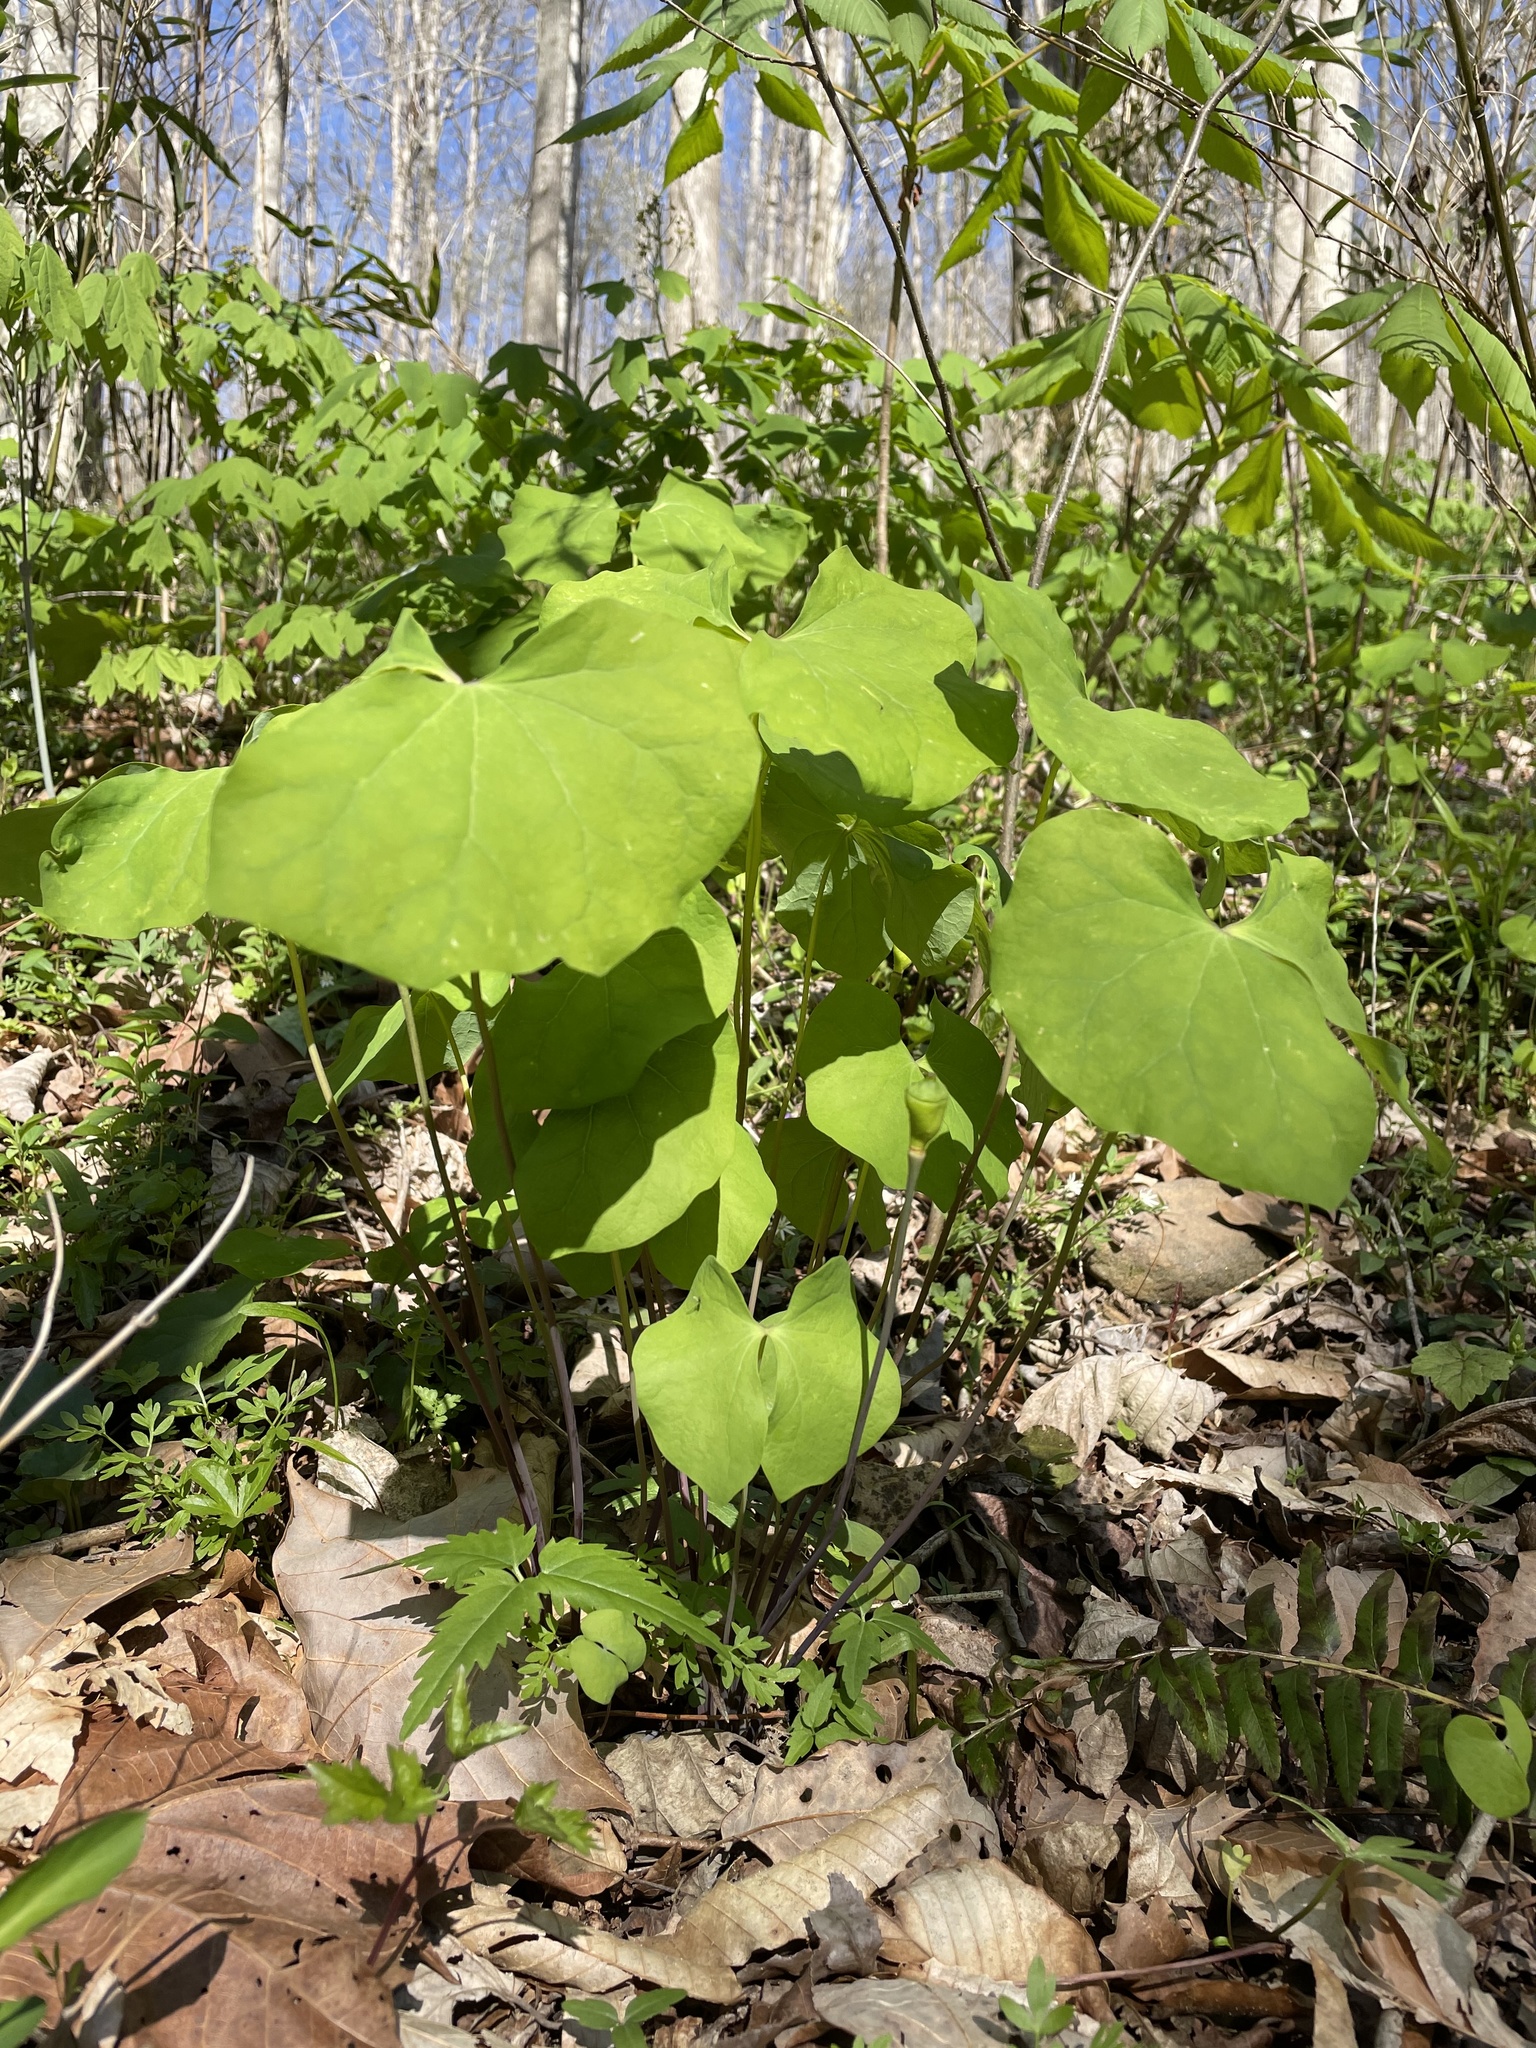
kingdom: Plantae
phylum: Tracheophyta
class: Magnoliopsida
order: Ranunculales
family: Berberidaceae
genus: Jeffersonia
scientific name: Jeffersonia diphylla
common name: Rheumatism-root
